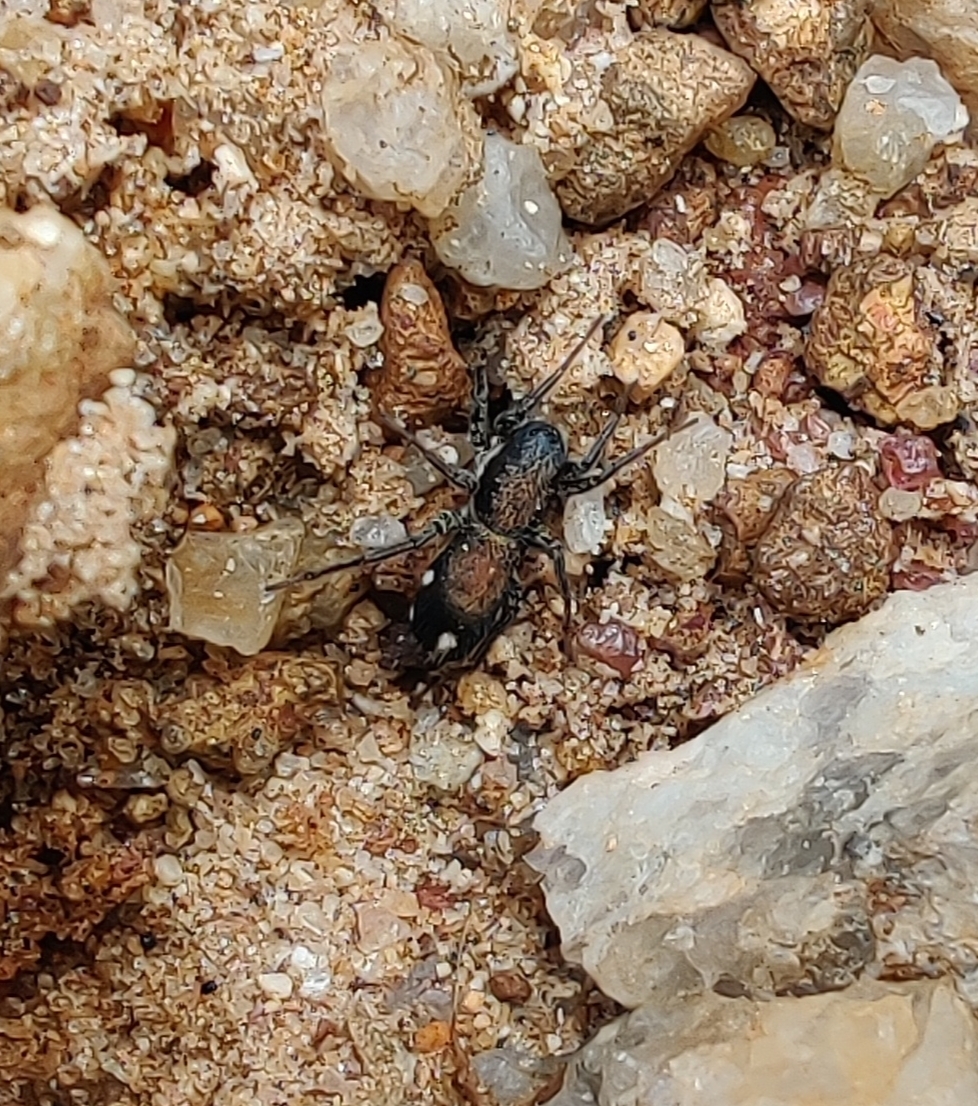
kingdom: Animalia
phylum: Arthropoda
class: Arachnida
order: Araneae
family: Corinnidae
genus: Coenoptychus
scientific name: Coenoptychus pulcher
